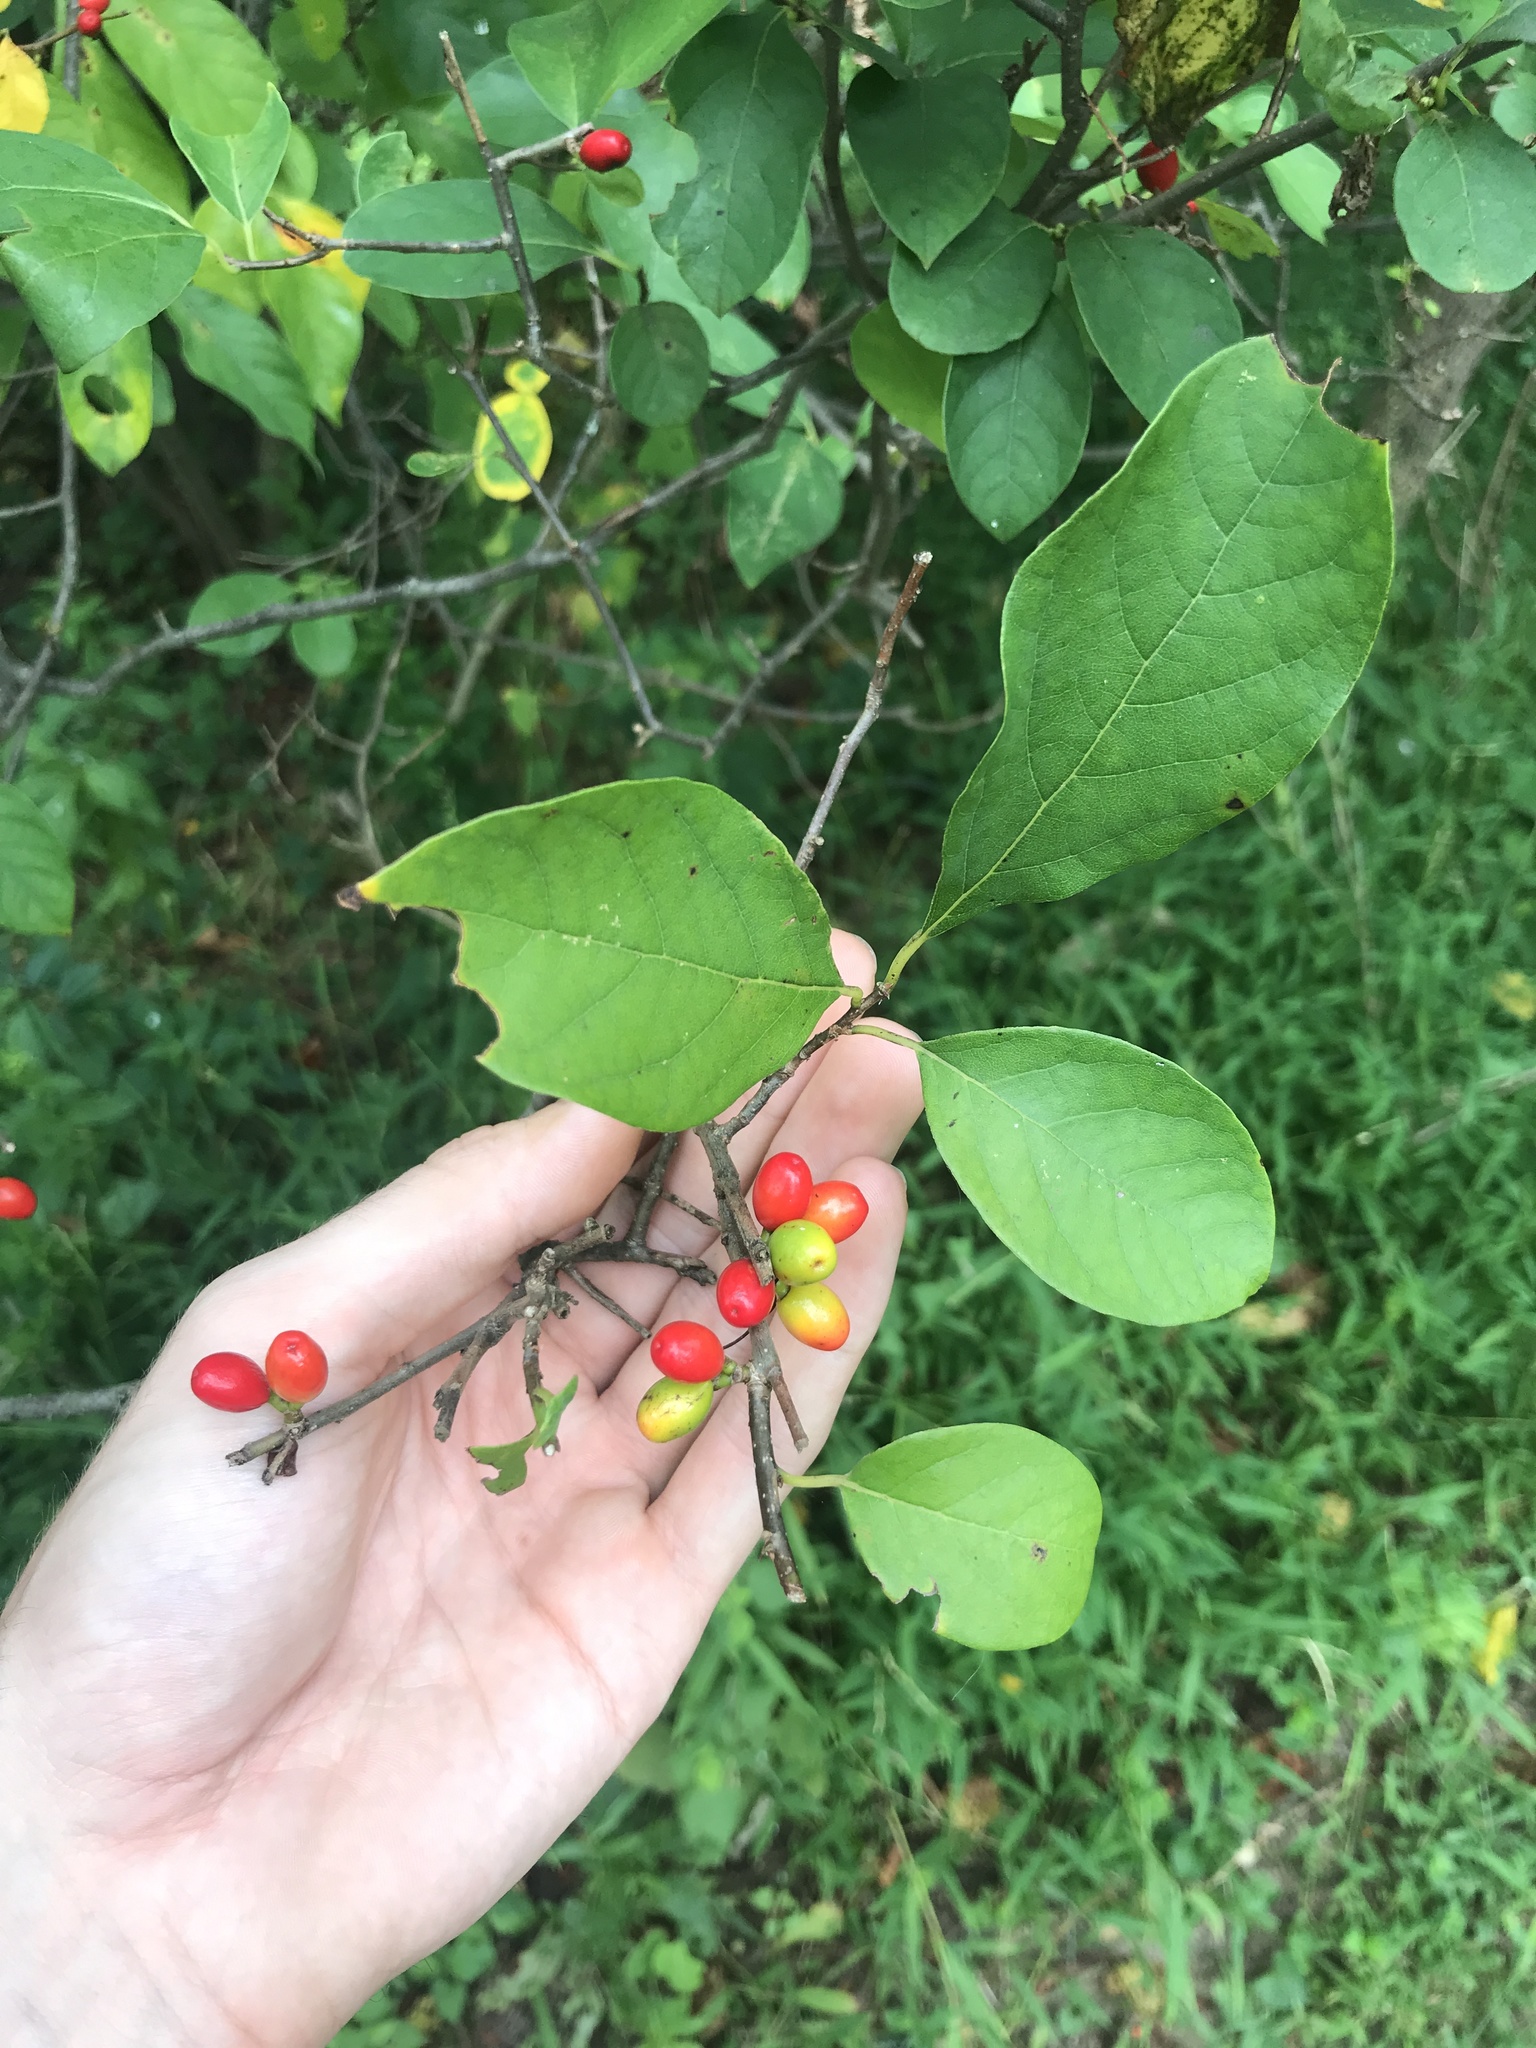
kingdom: Plantae
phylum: Tracheophyta
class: Magnoliopsida
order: Laurales
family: Lauraceae
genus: Lindera
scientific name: Lindera benzoin
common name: Spicebush
